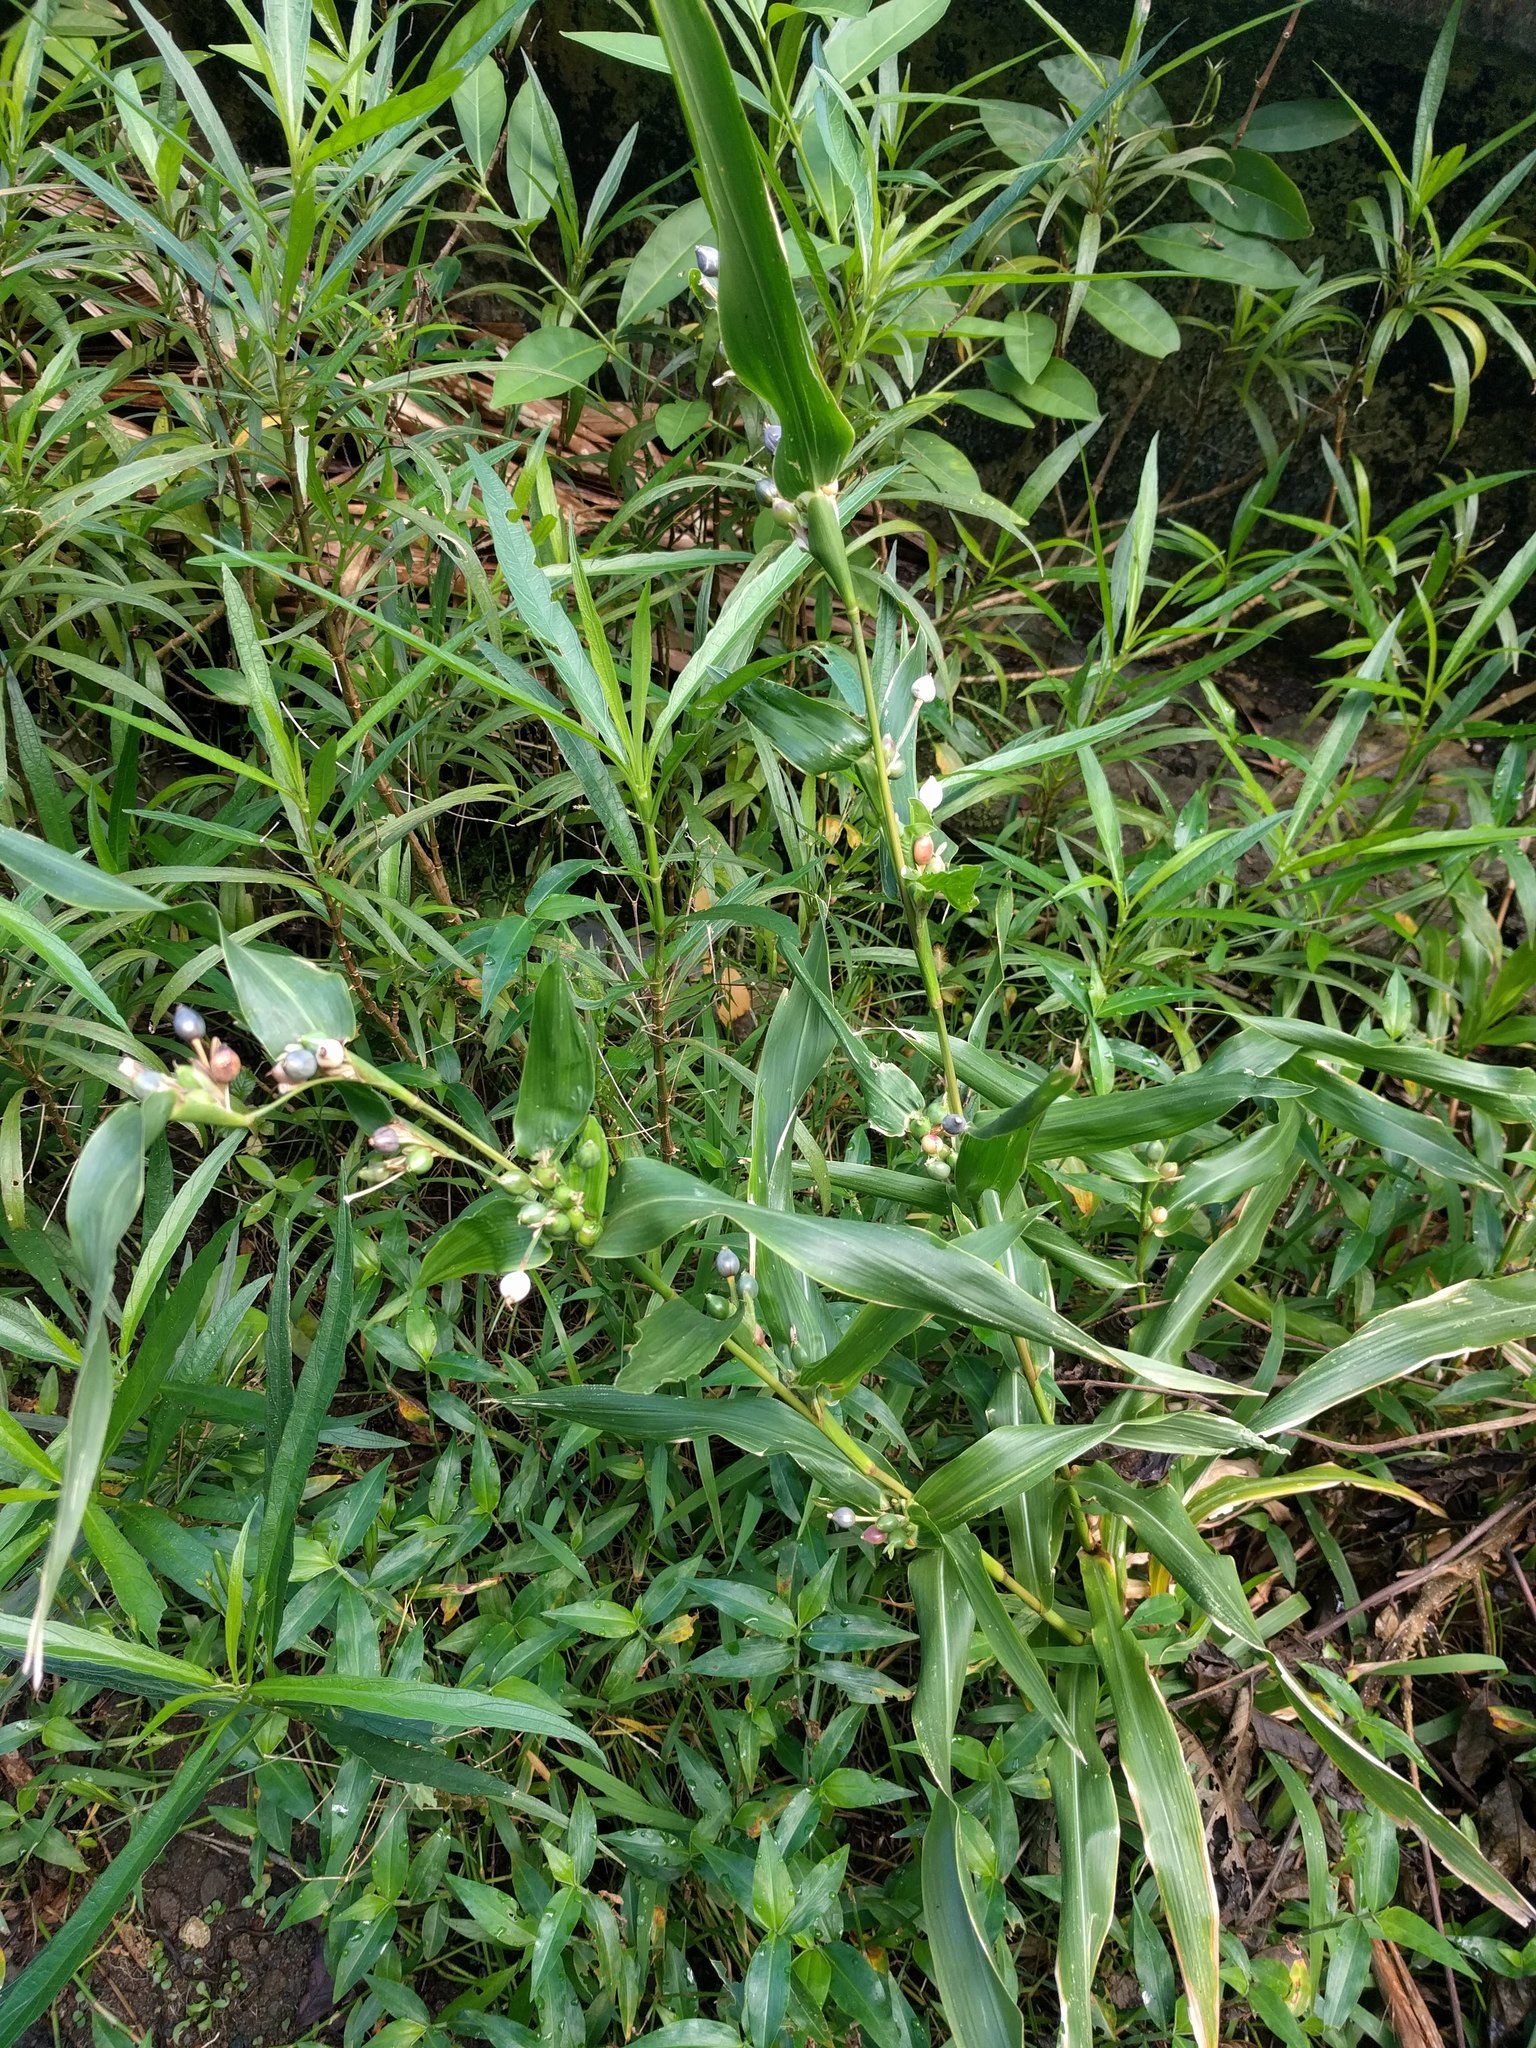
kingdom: Plantae
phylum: Tracheophyta
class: Liliopsida
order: Poales
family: Poaceae
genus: Coix
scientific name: Coix lacryma-jobi
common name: Job's tears
